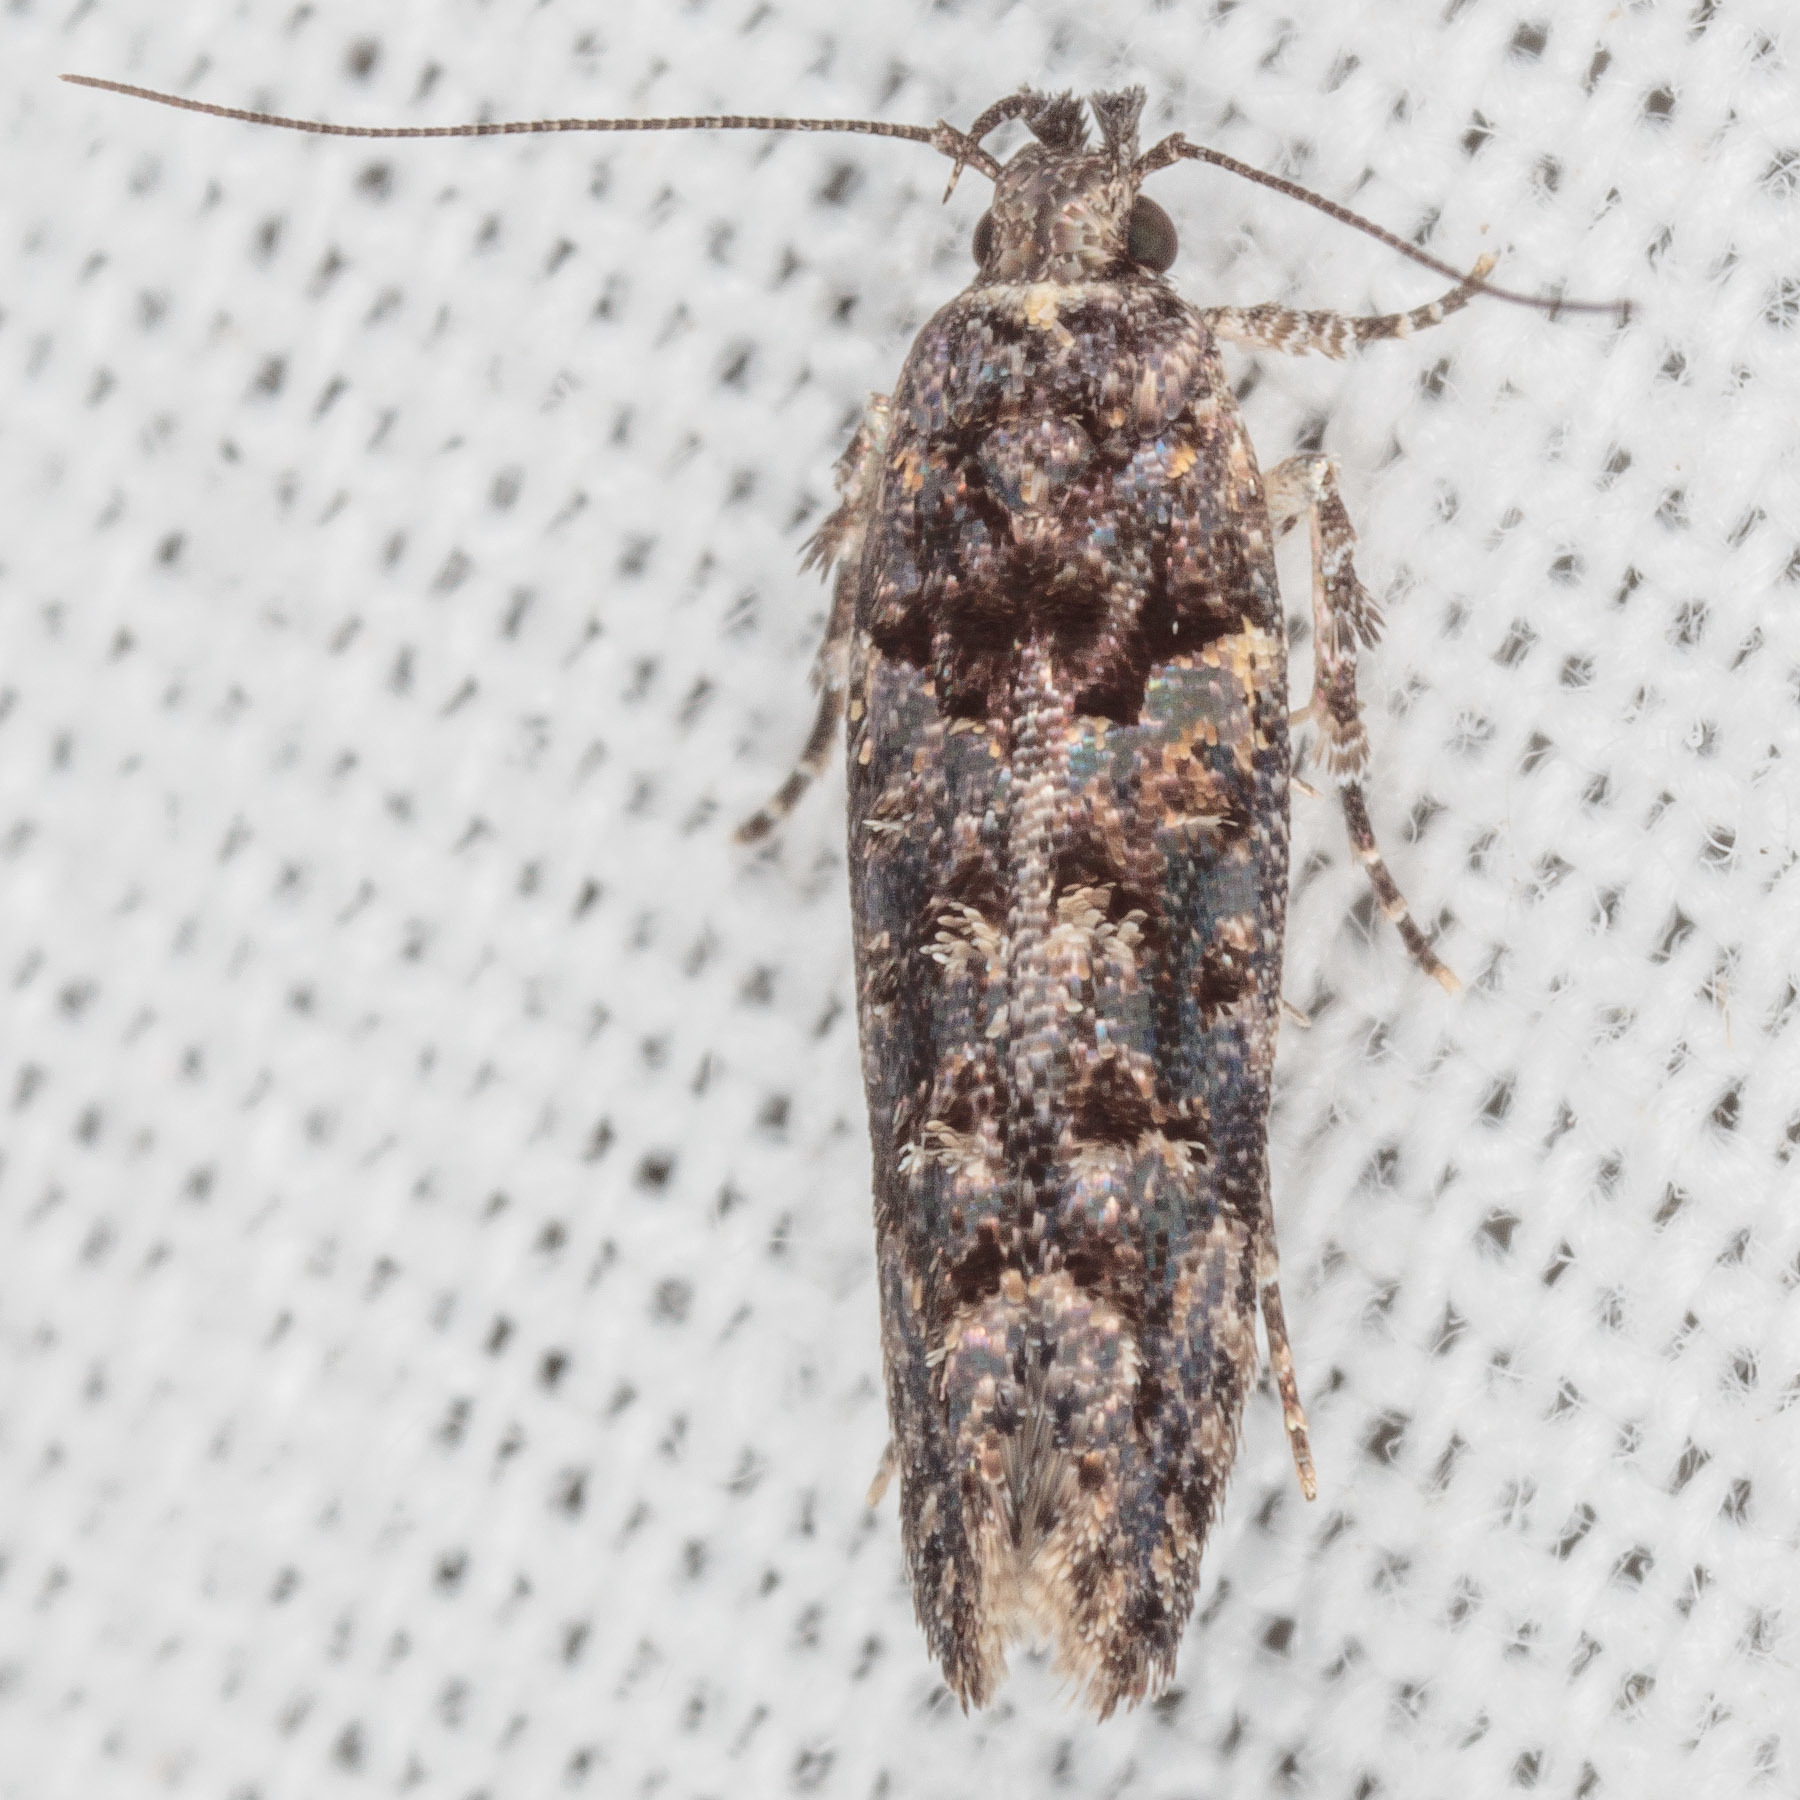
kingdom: Animalia
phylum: Arthropoda
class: Insecta
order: Lepidoptera
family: Gelechiidae
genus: Telphusa
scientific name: Telphusa perspicua
